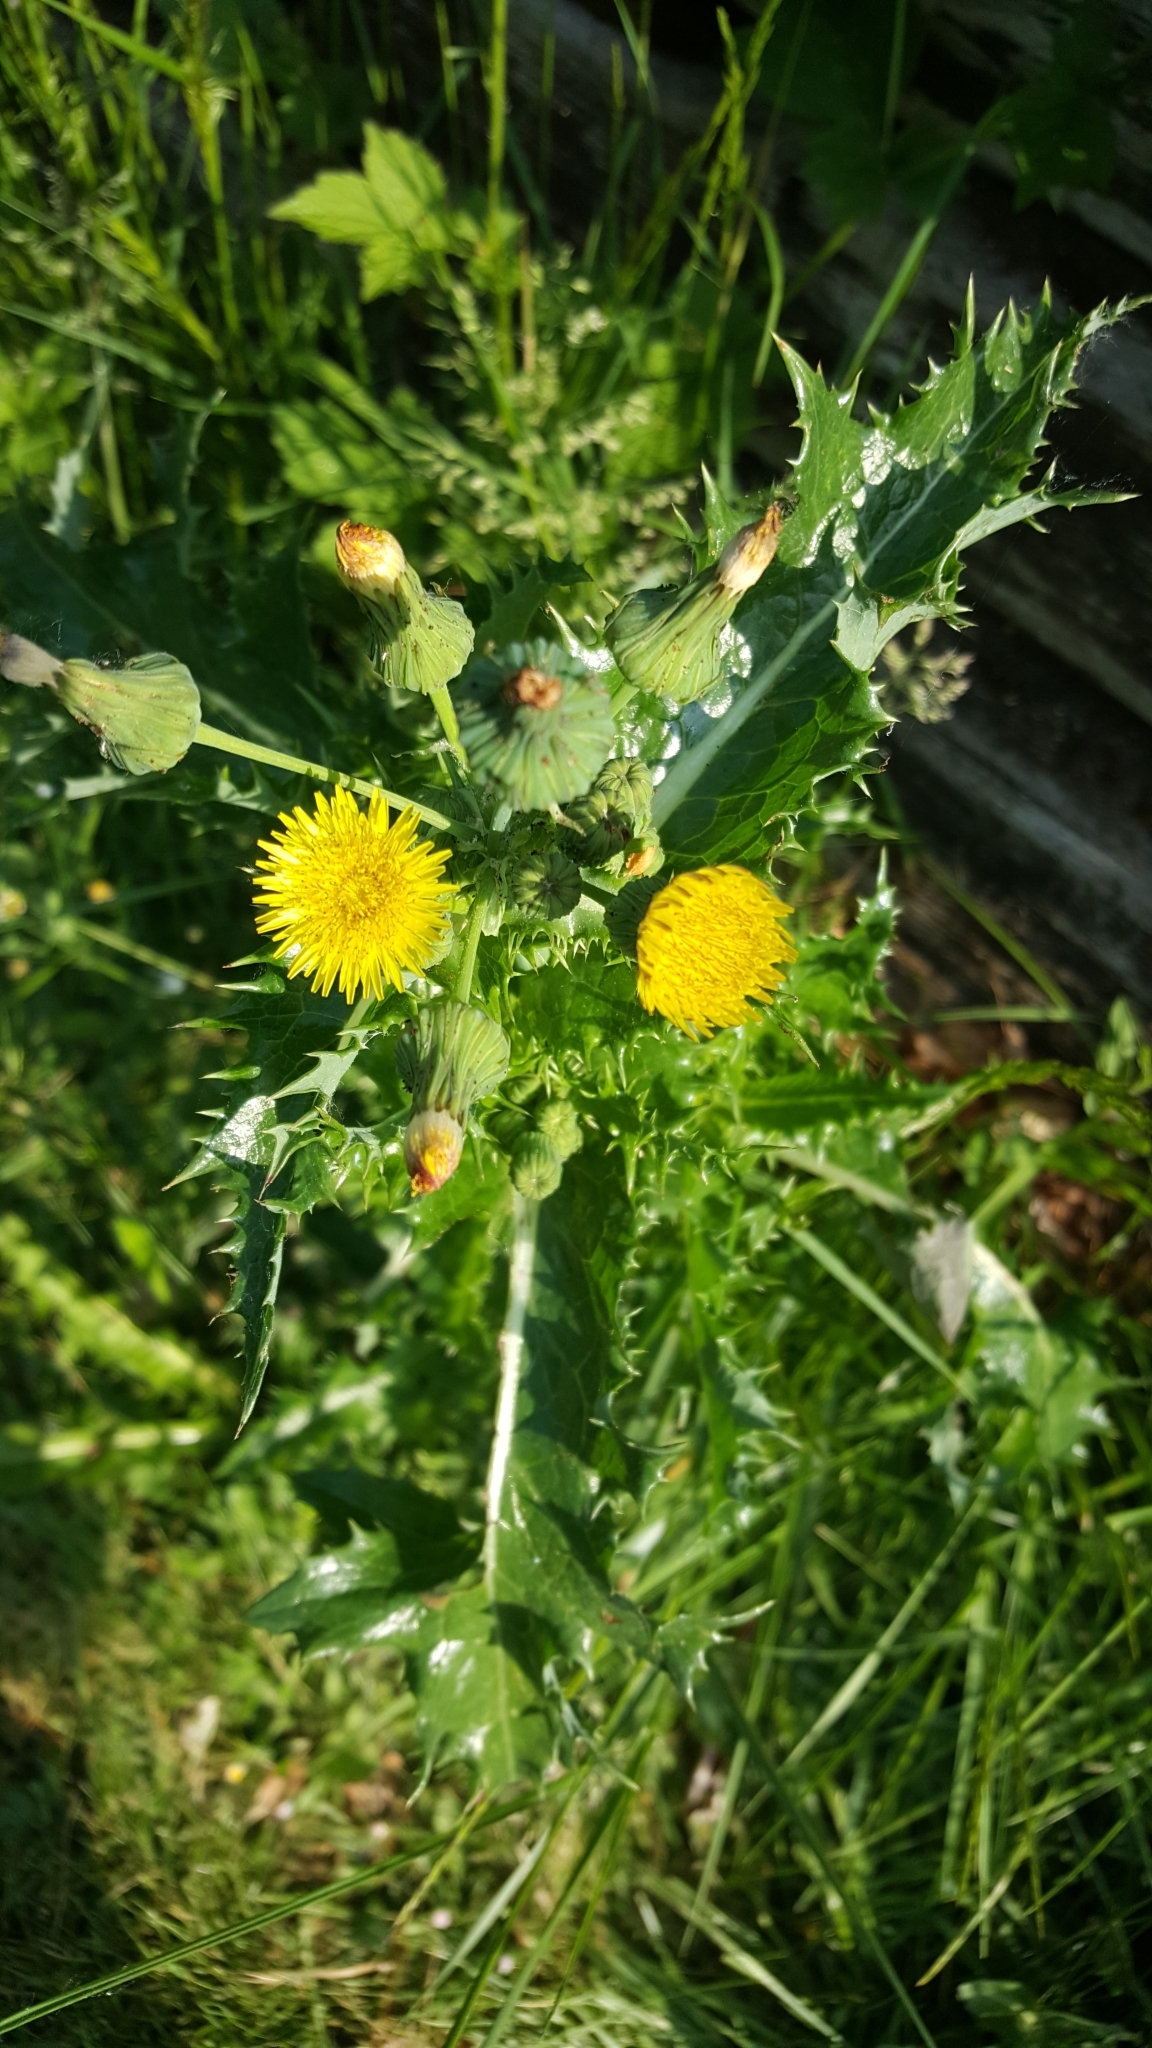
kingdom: Plantae
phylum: Tracheophyta
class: Magnoliopsida
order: Asterales
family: Asteraceae
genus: Sonchus
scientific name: Sonchus asper
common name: Prickly sow-thistle
